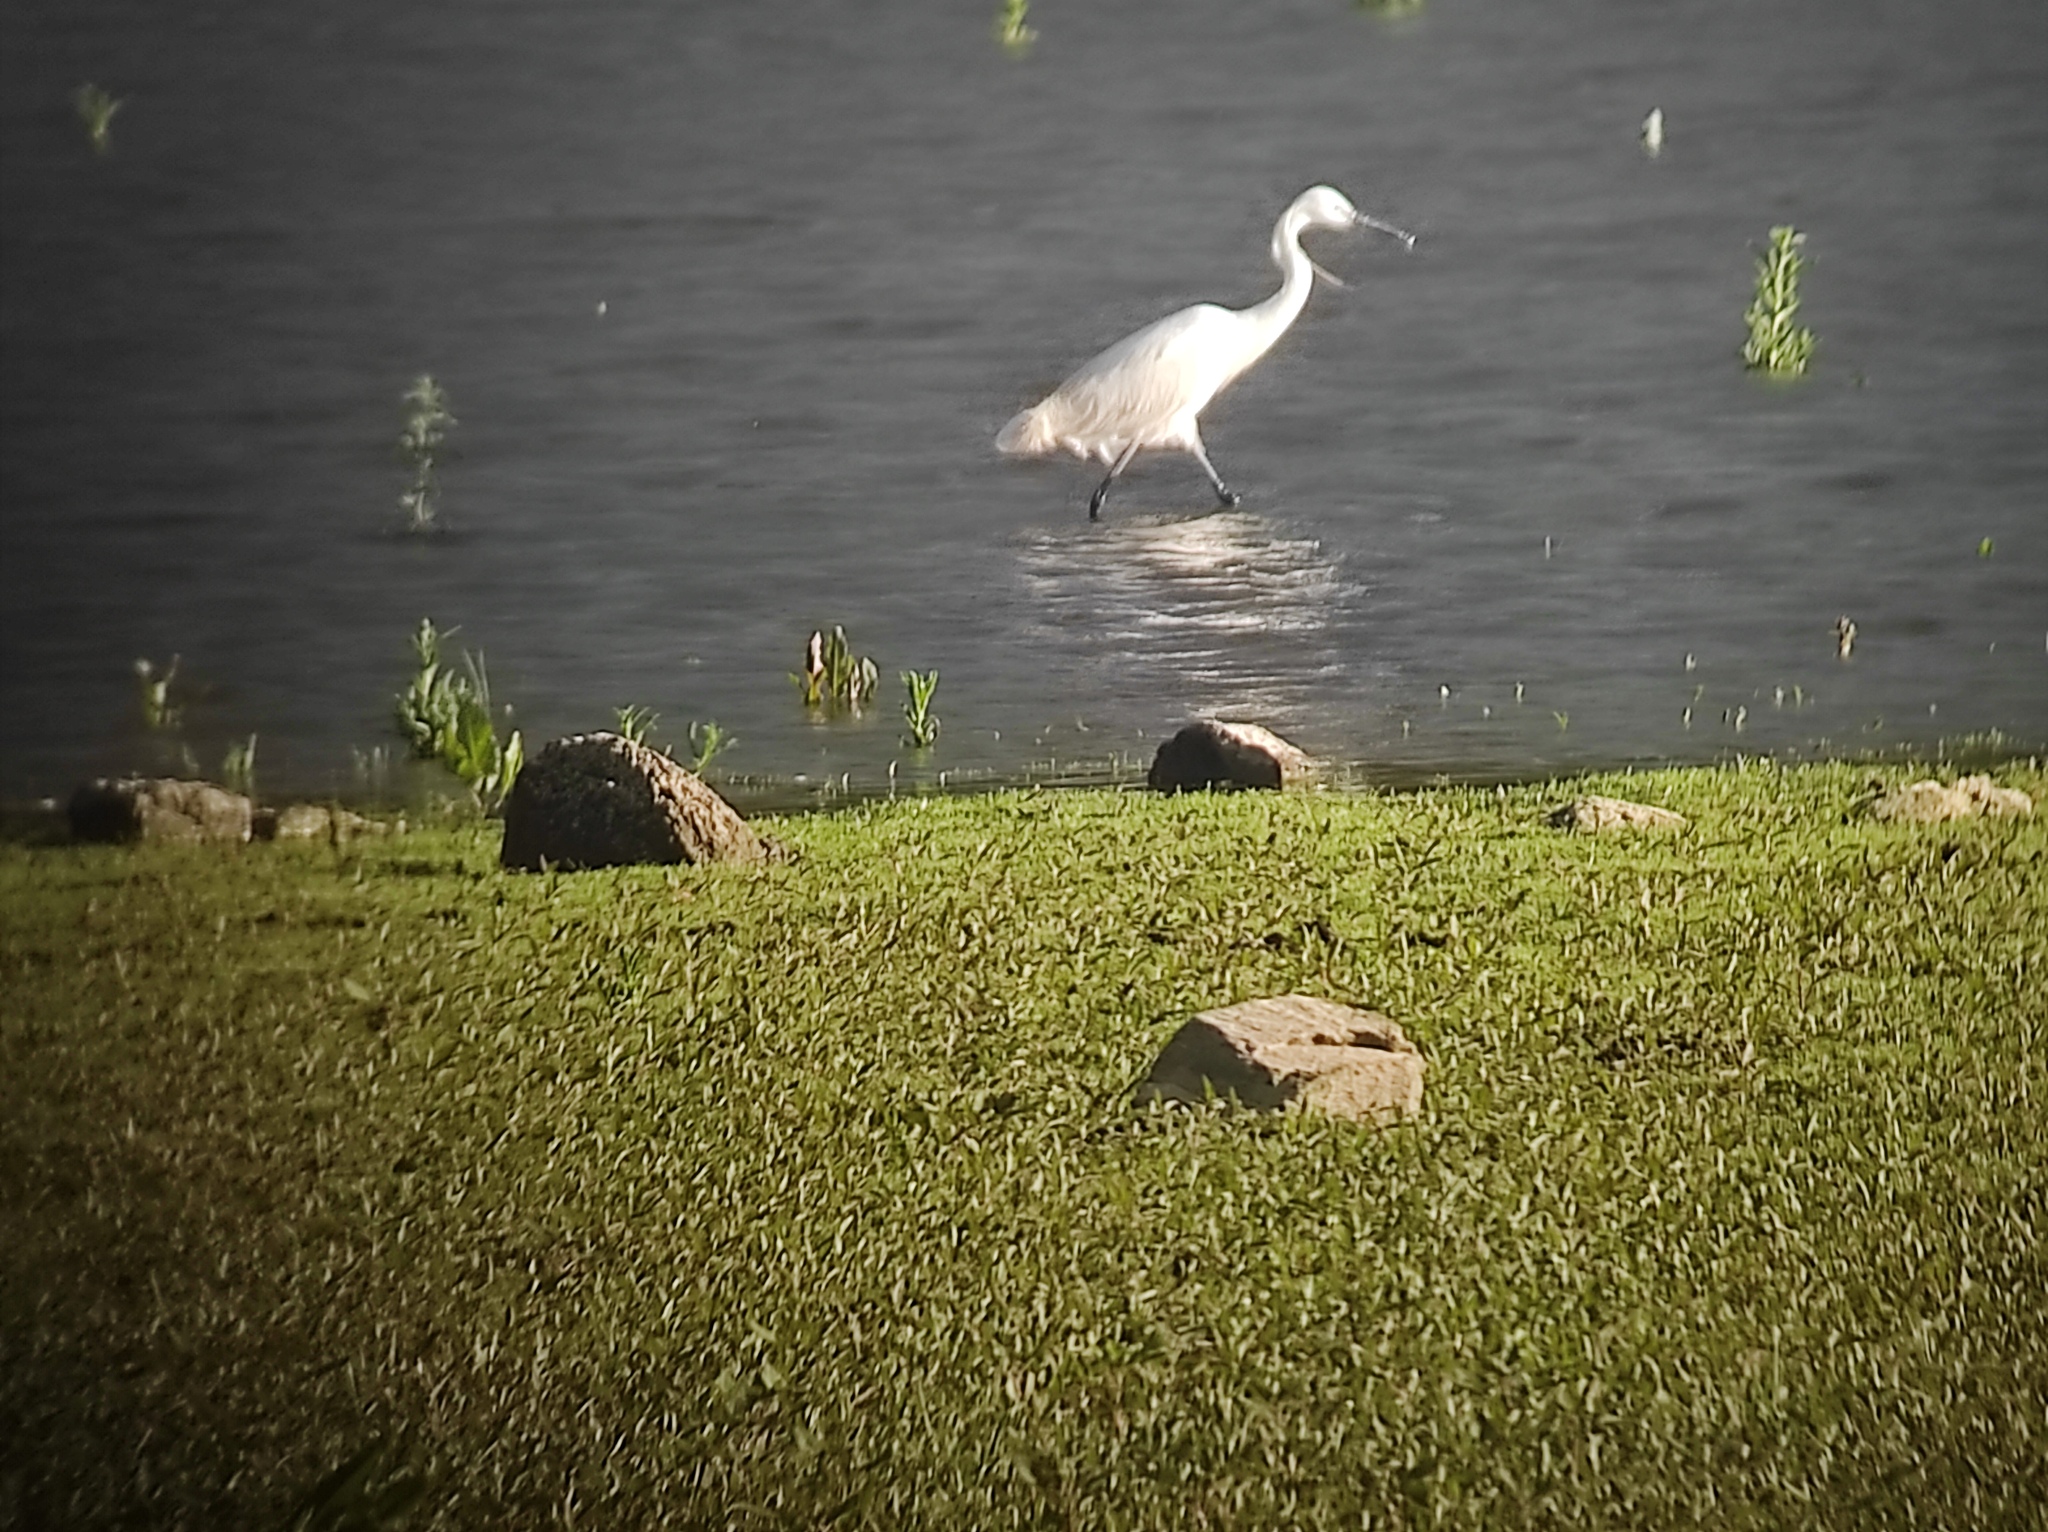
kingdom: Animalia
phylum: Chordata
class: Aves
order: Pelecaniformes
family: Ardeidae
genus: Egretta
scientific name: Egretta garzetta
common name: Little egret
